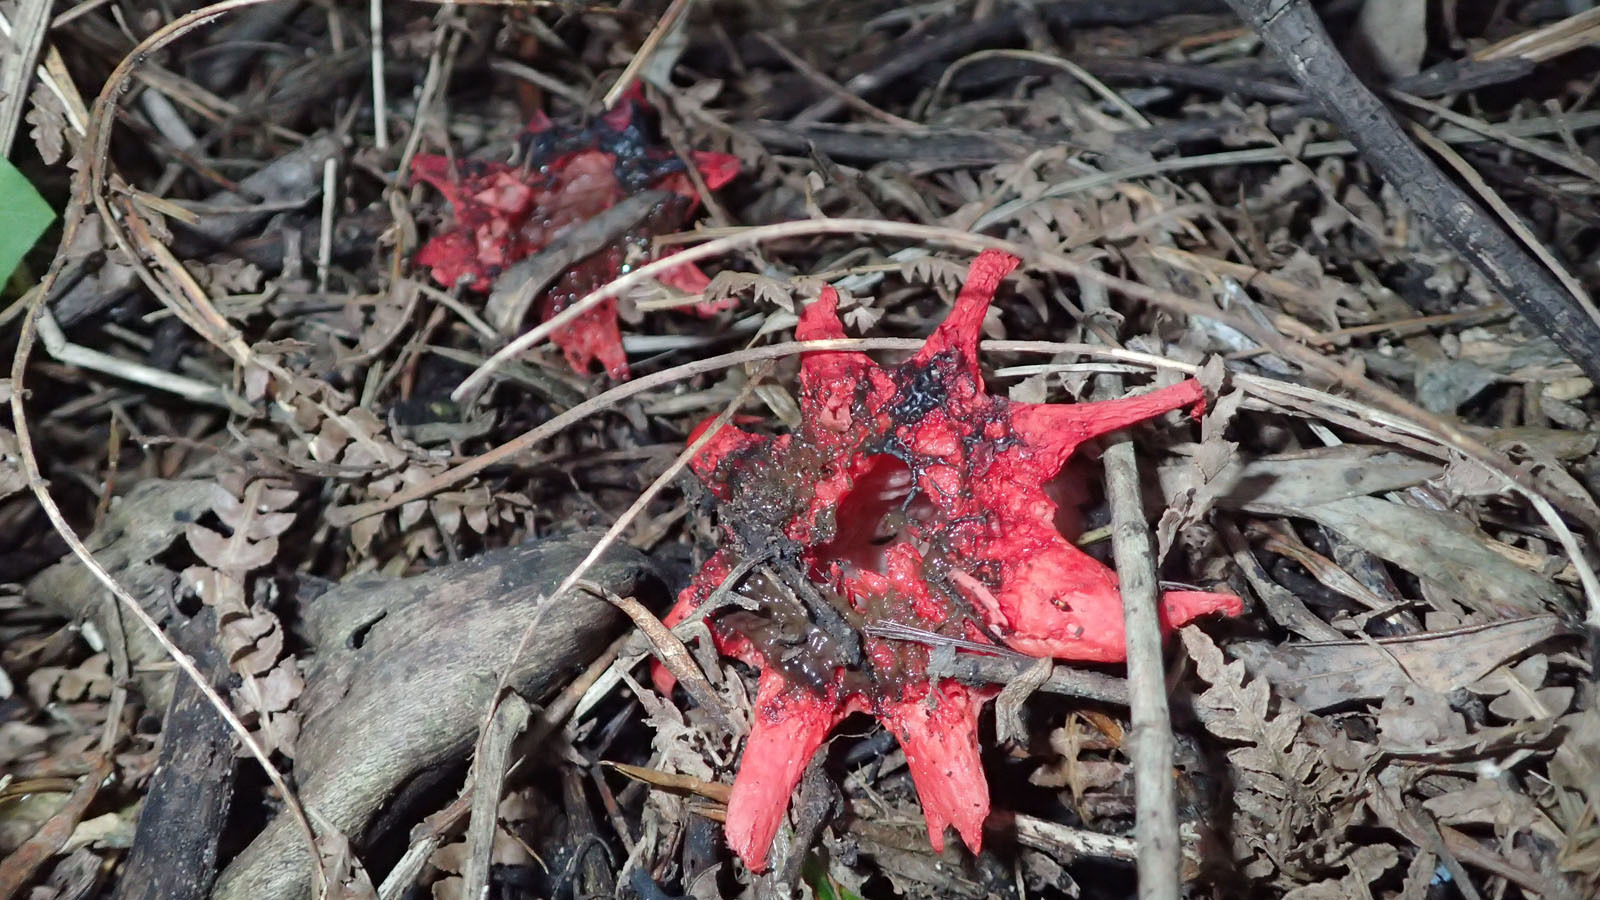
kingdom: Fungi
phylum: Basidiomycota
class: Agaricomycetes
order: Phallales
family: Phallaceae
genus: Aseroe
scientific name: Aseroe rubra
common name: Starfish fungus
